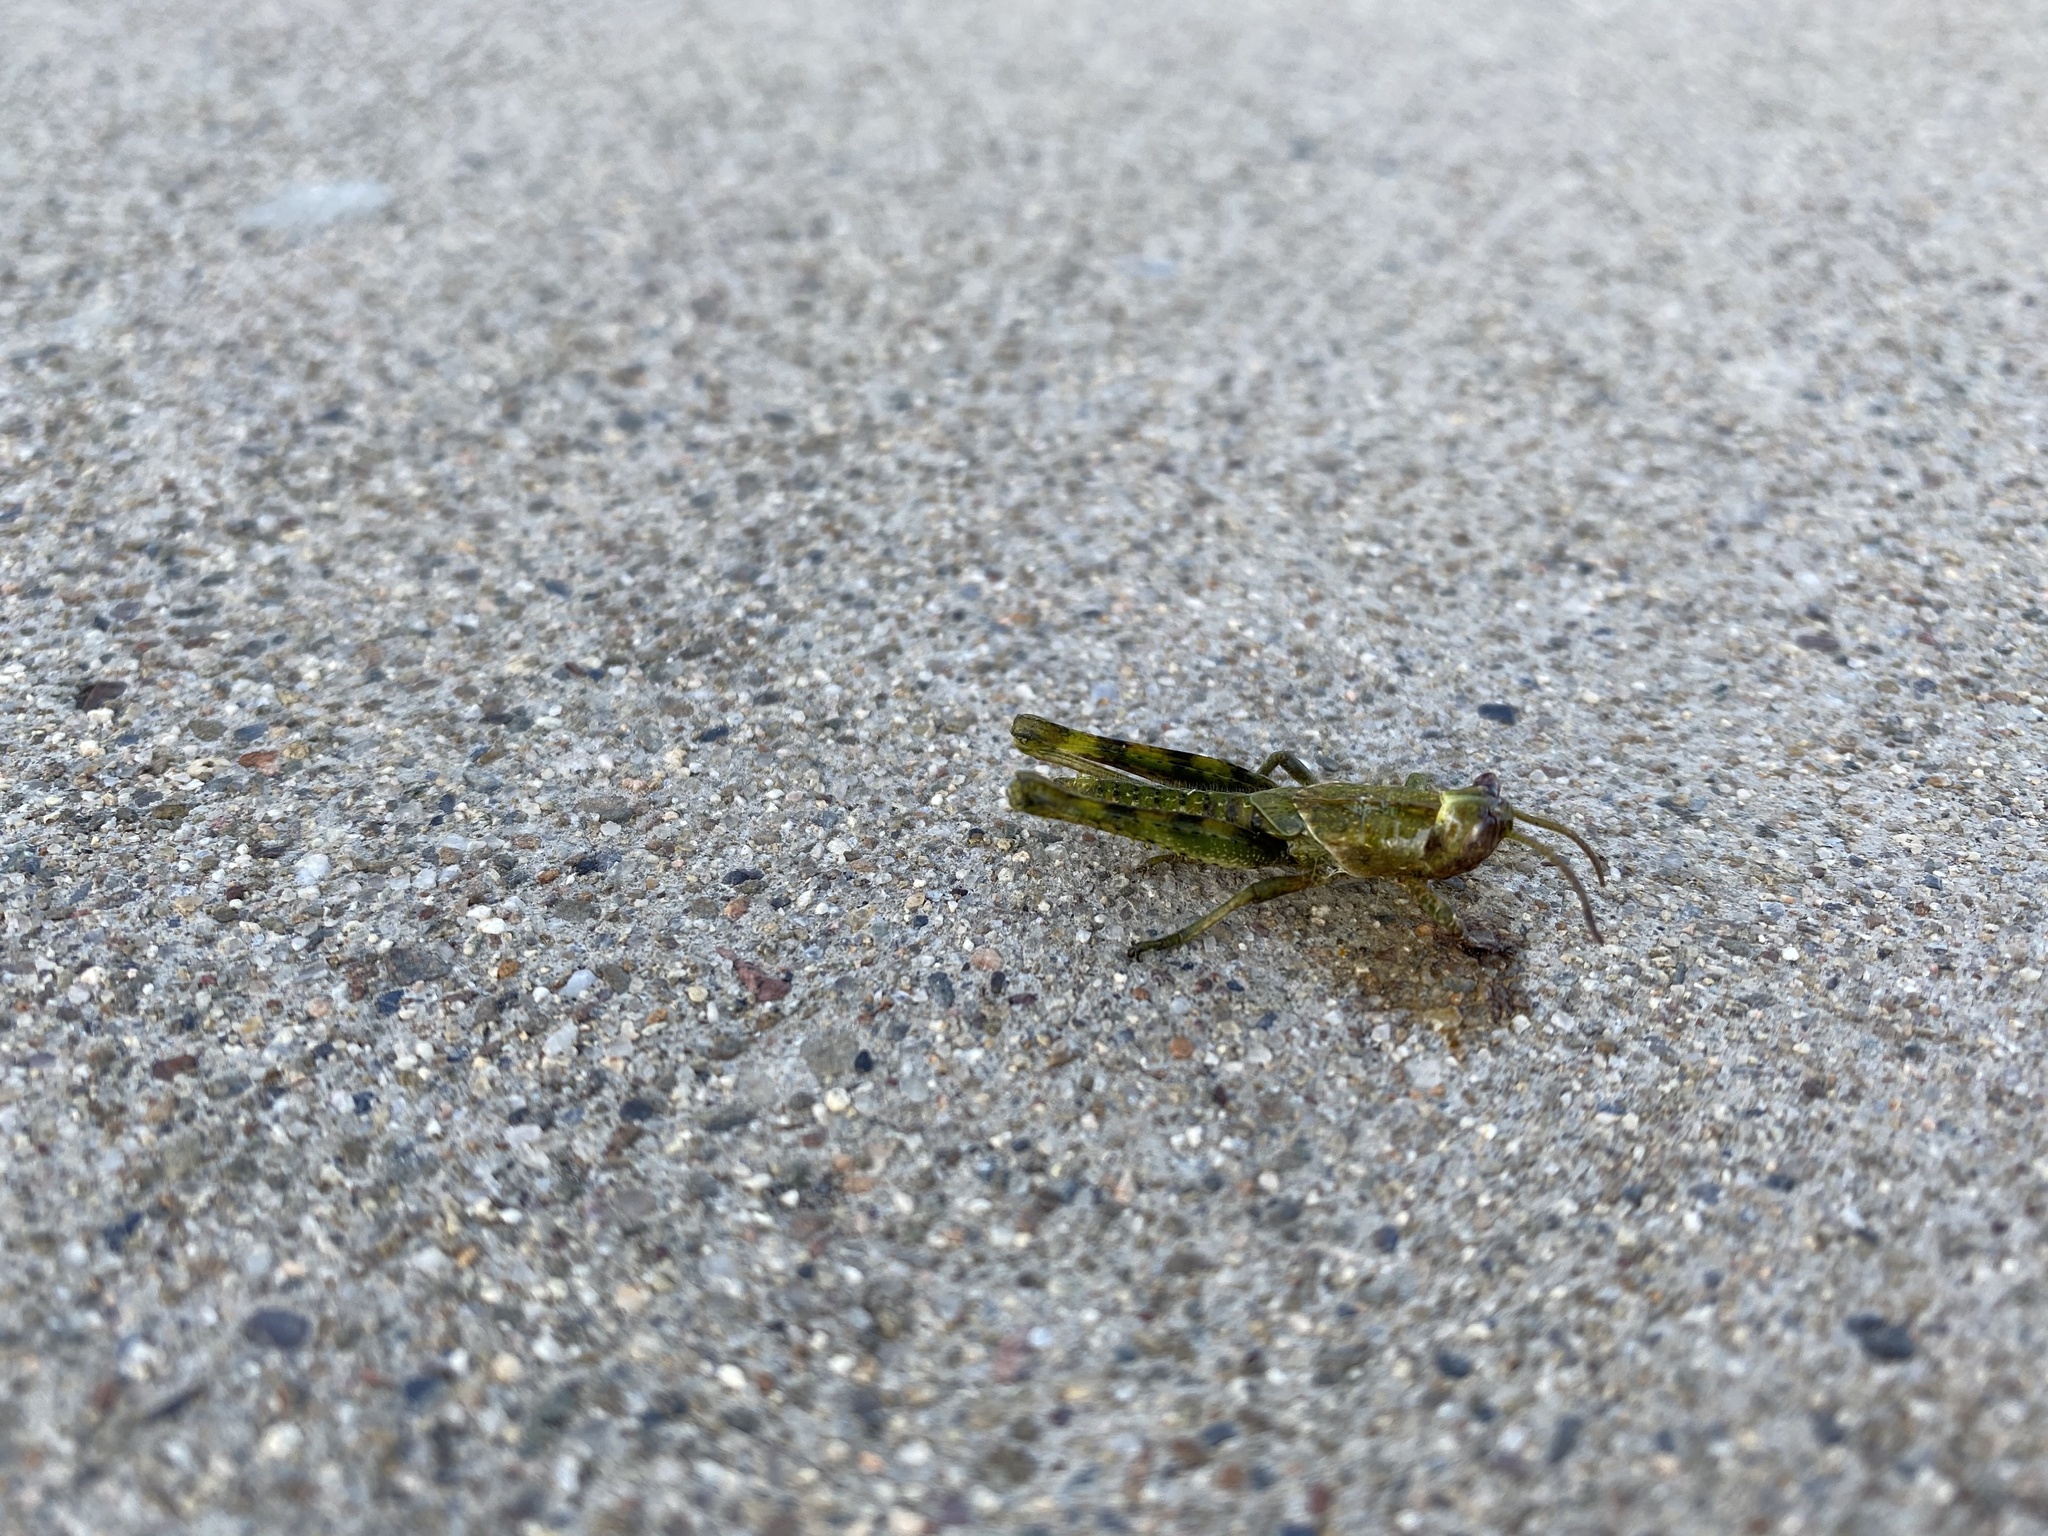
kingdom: Animalia
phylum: Arthropoda
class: Insecta
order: Orthoptera
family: Acrididae
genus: Schistocerca
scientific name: Schistocerca nitens
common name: Vagrant grasshopper
